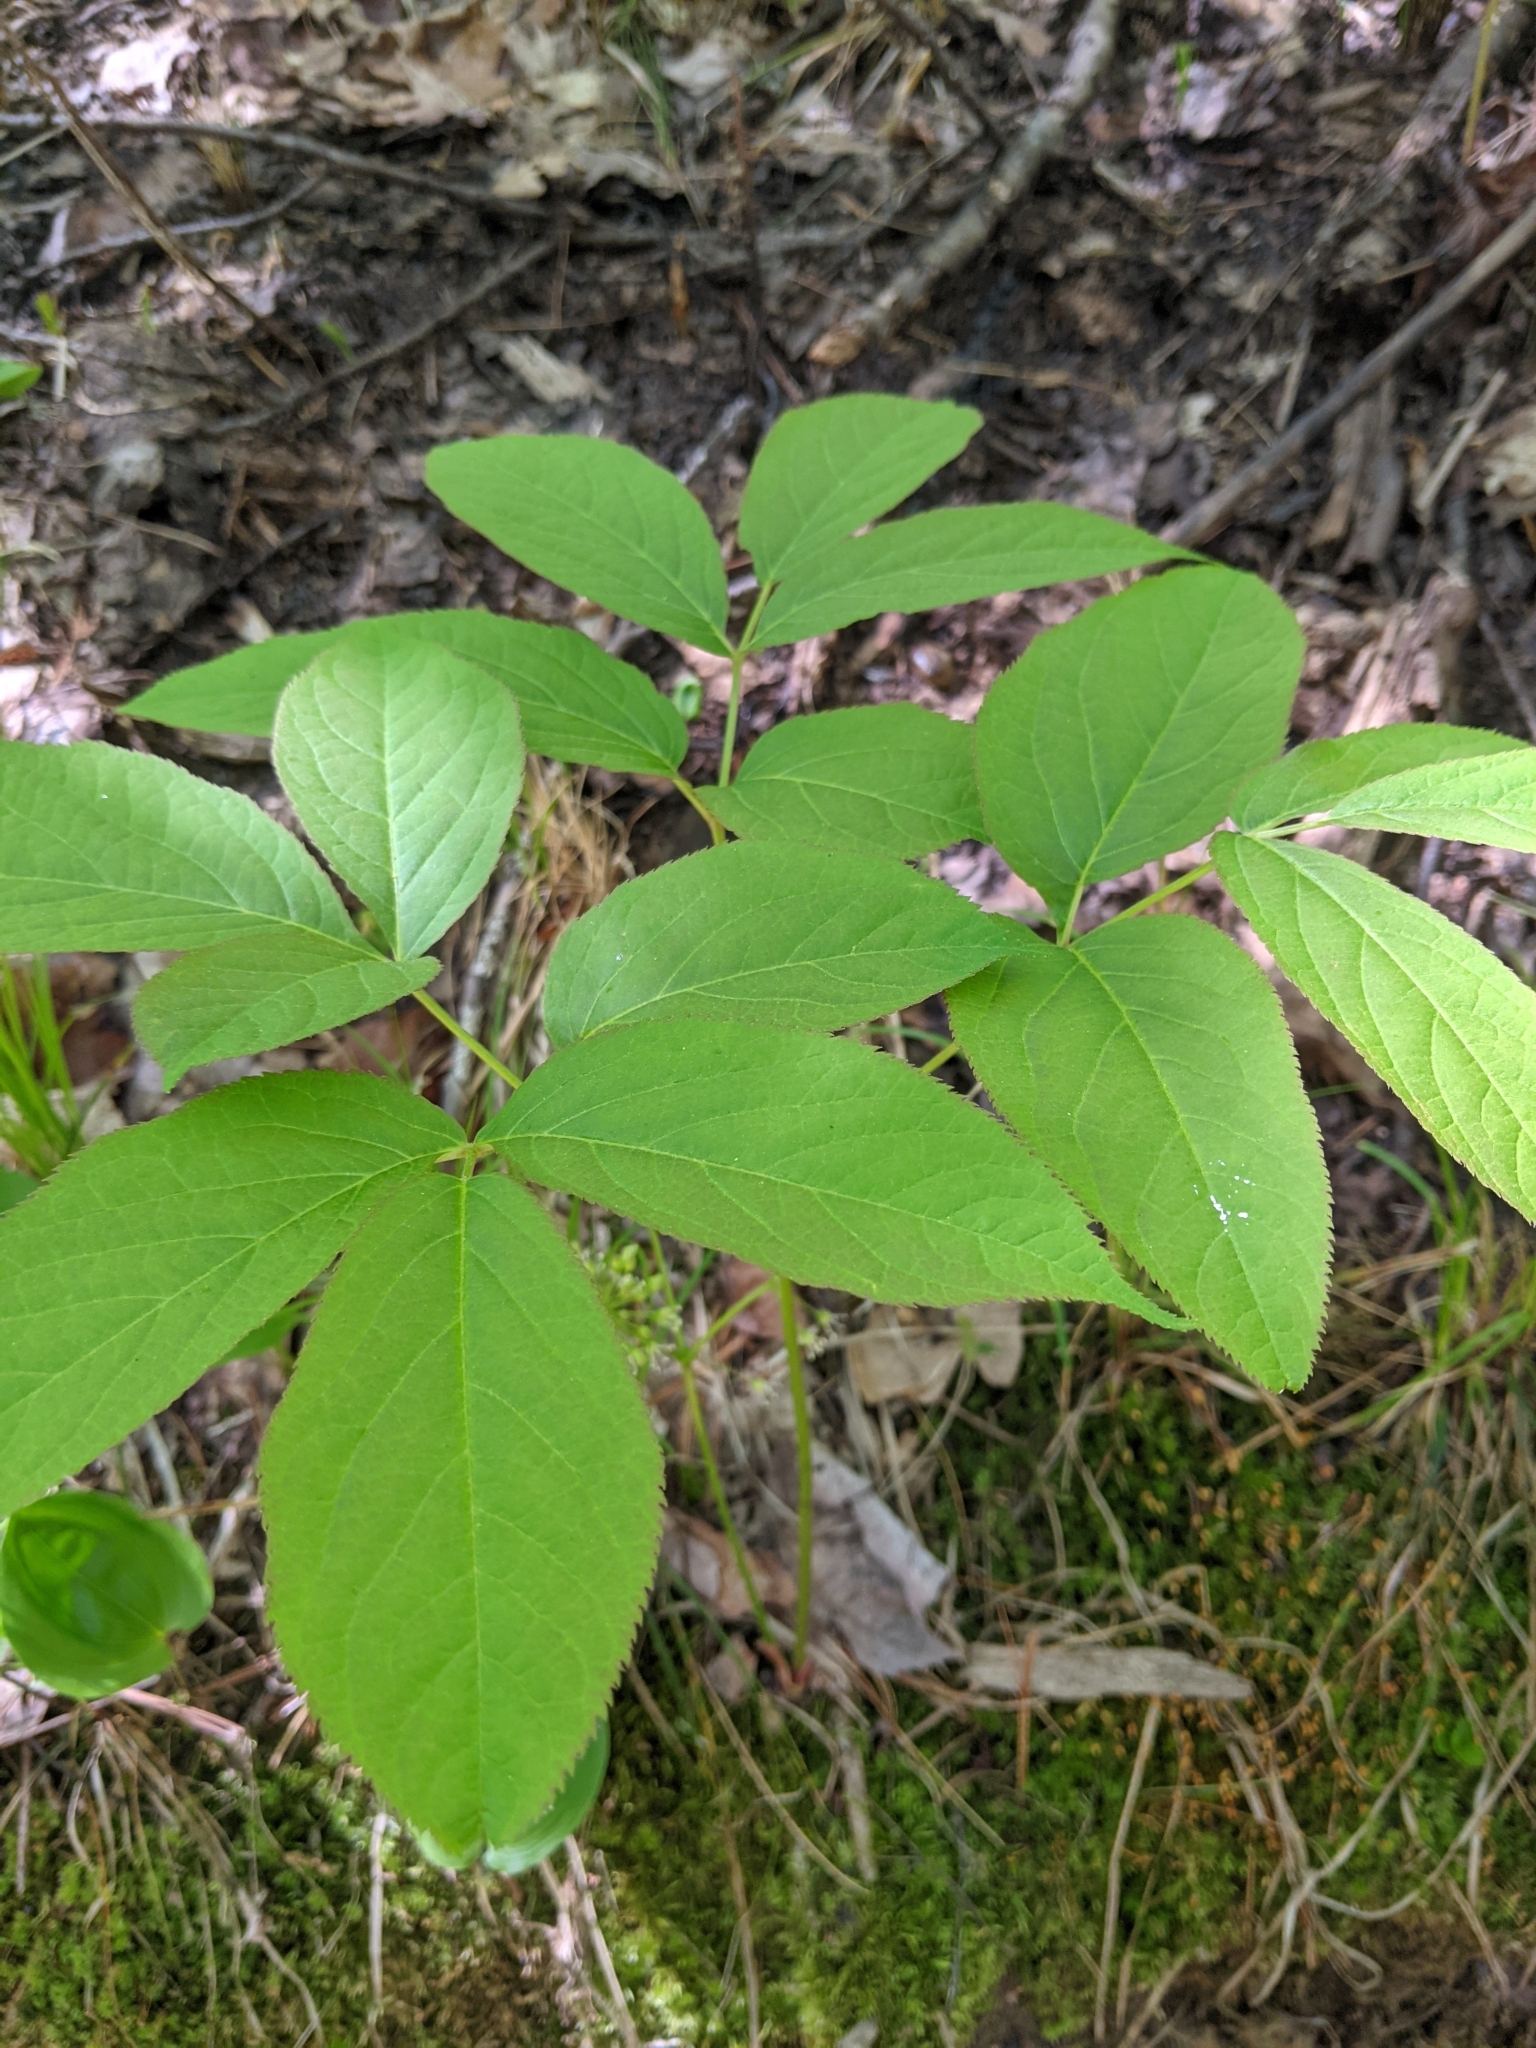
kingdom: Plantae
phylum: Tracheophyta
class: Magnoliopsida
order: Apiales
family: Araliaceae
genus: Aralia
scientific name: Aralia nudicaulis
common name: Wild sarsaparilla
